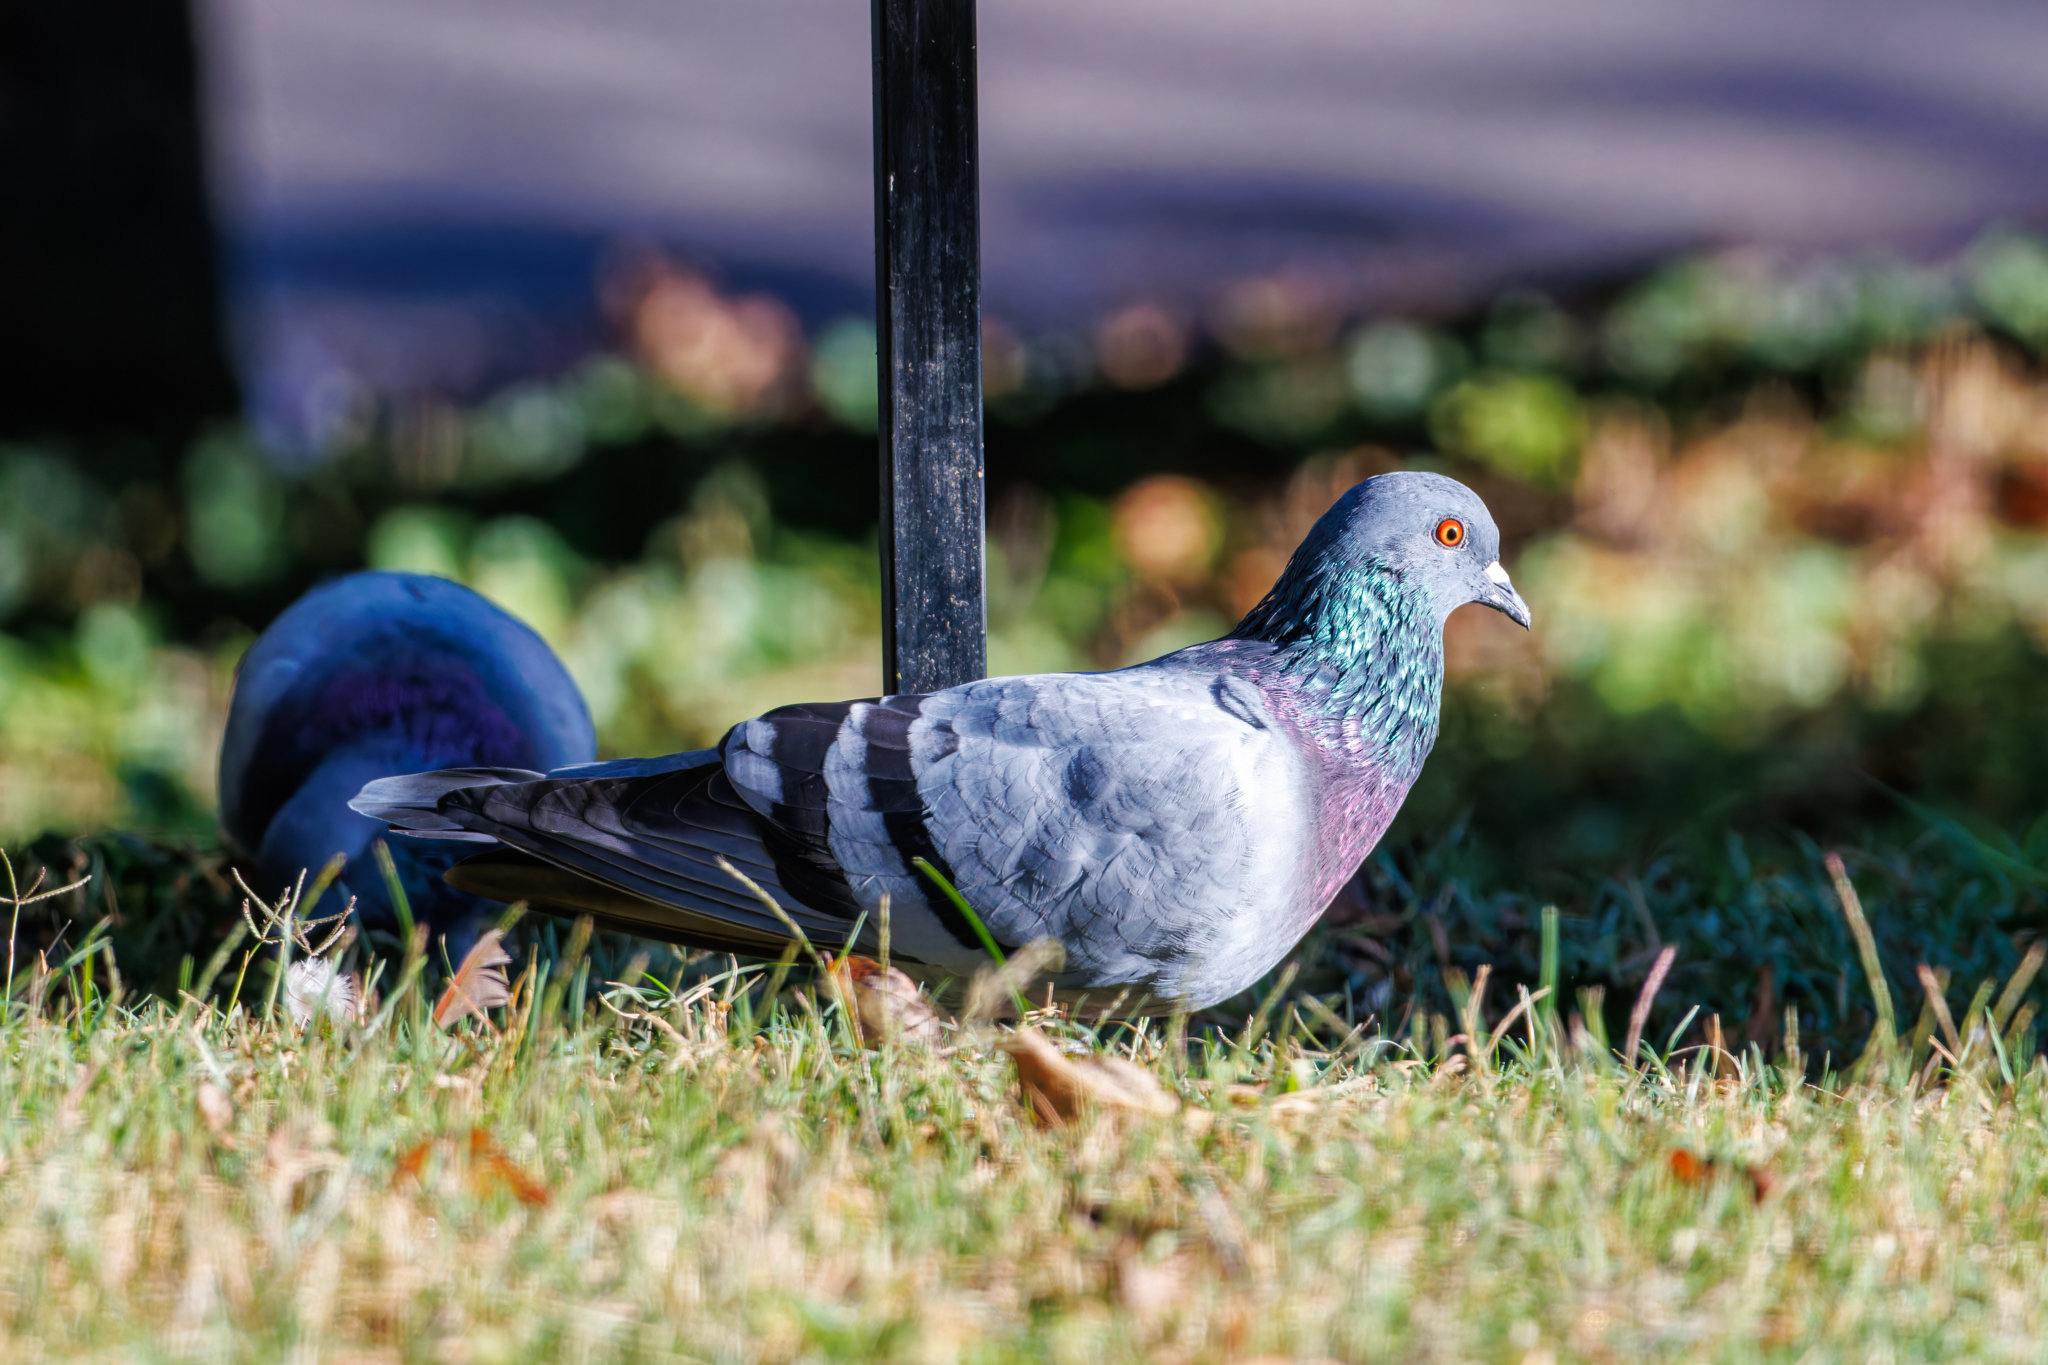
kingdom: Animalia
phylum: Chordata
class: Aves
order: Columbiformes
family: Columbidae
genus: Columba
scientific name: Columba livia
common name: Rock pigeon
